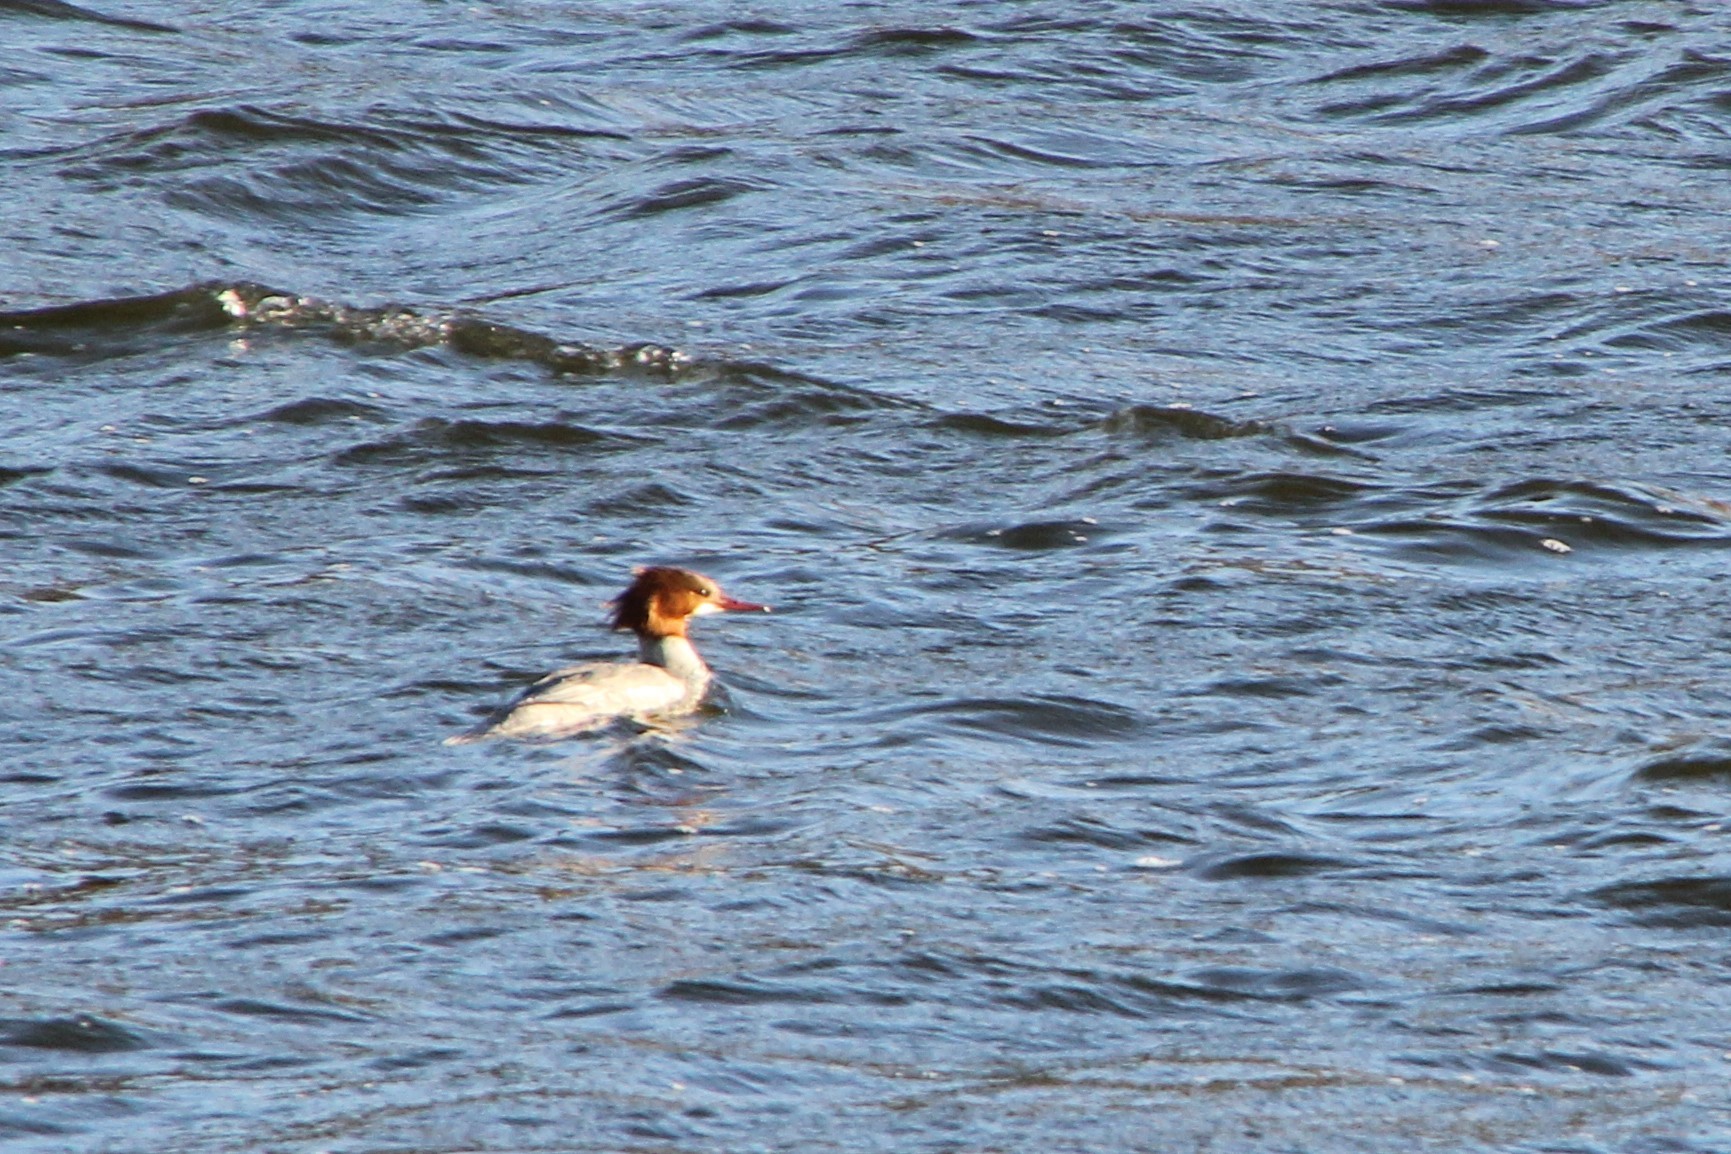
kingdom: Animalia
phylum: Chordata
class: Aves
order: Anseriformes
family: Anatidae
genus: Mergus
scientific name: Mergus merganser
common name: Common merganser
